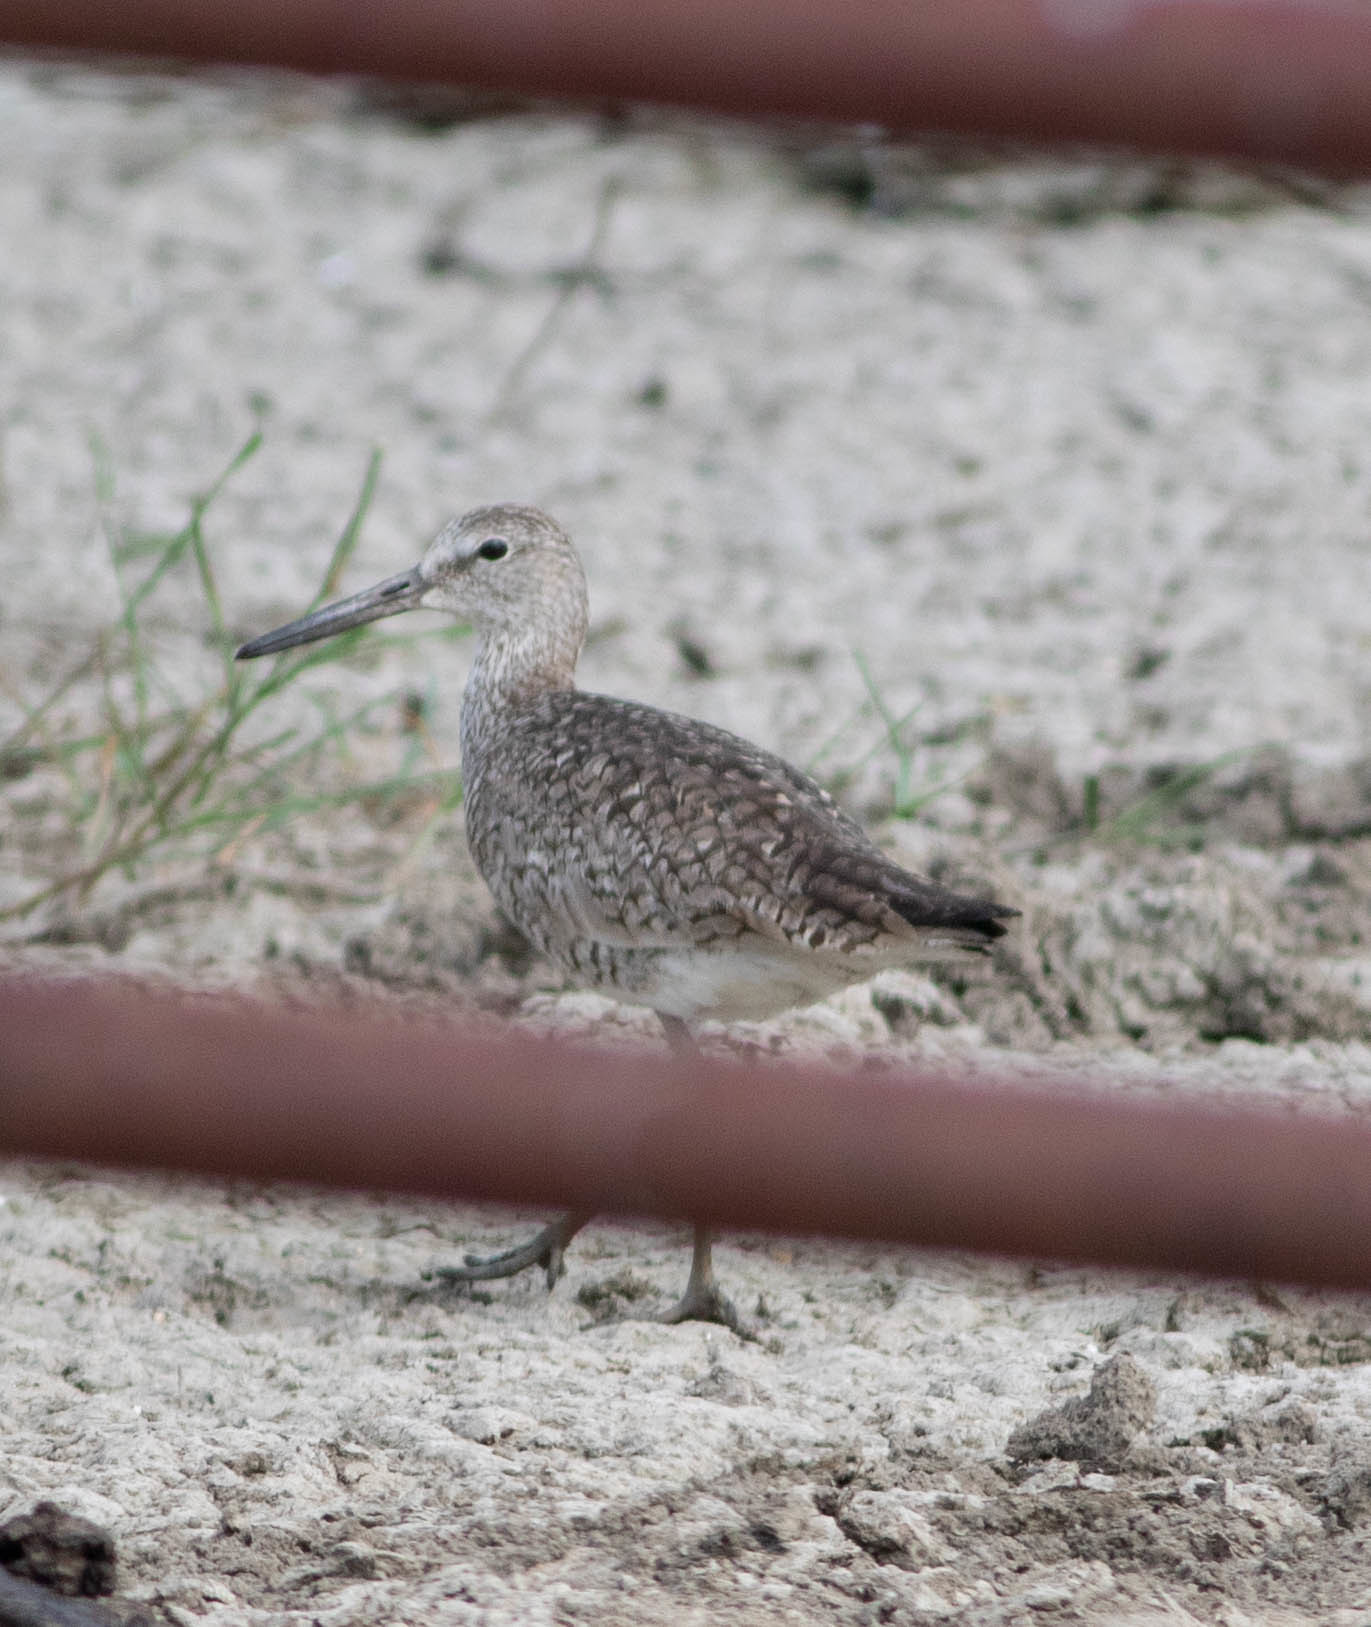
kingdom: Animalia
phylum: Chordata
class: Aves
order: Charadriiformes
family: Scolopacidae
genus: Tringa
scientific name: Tringa semipalmata
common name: Willet
